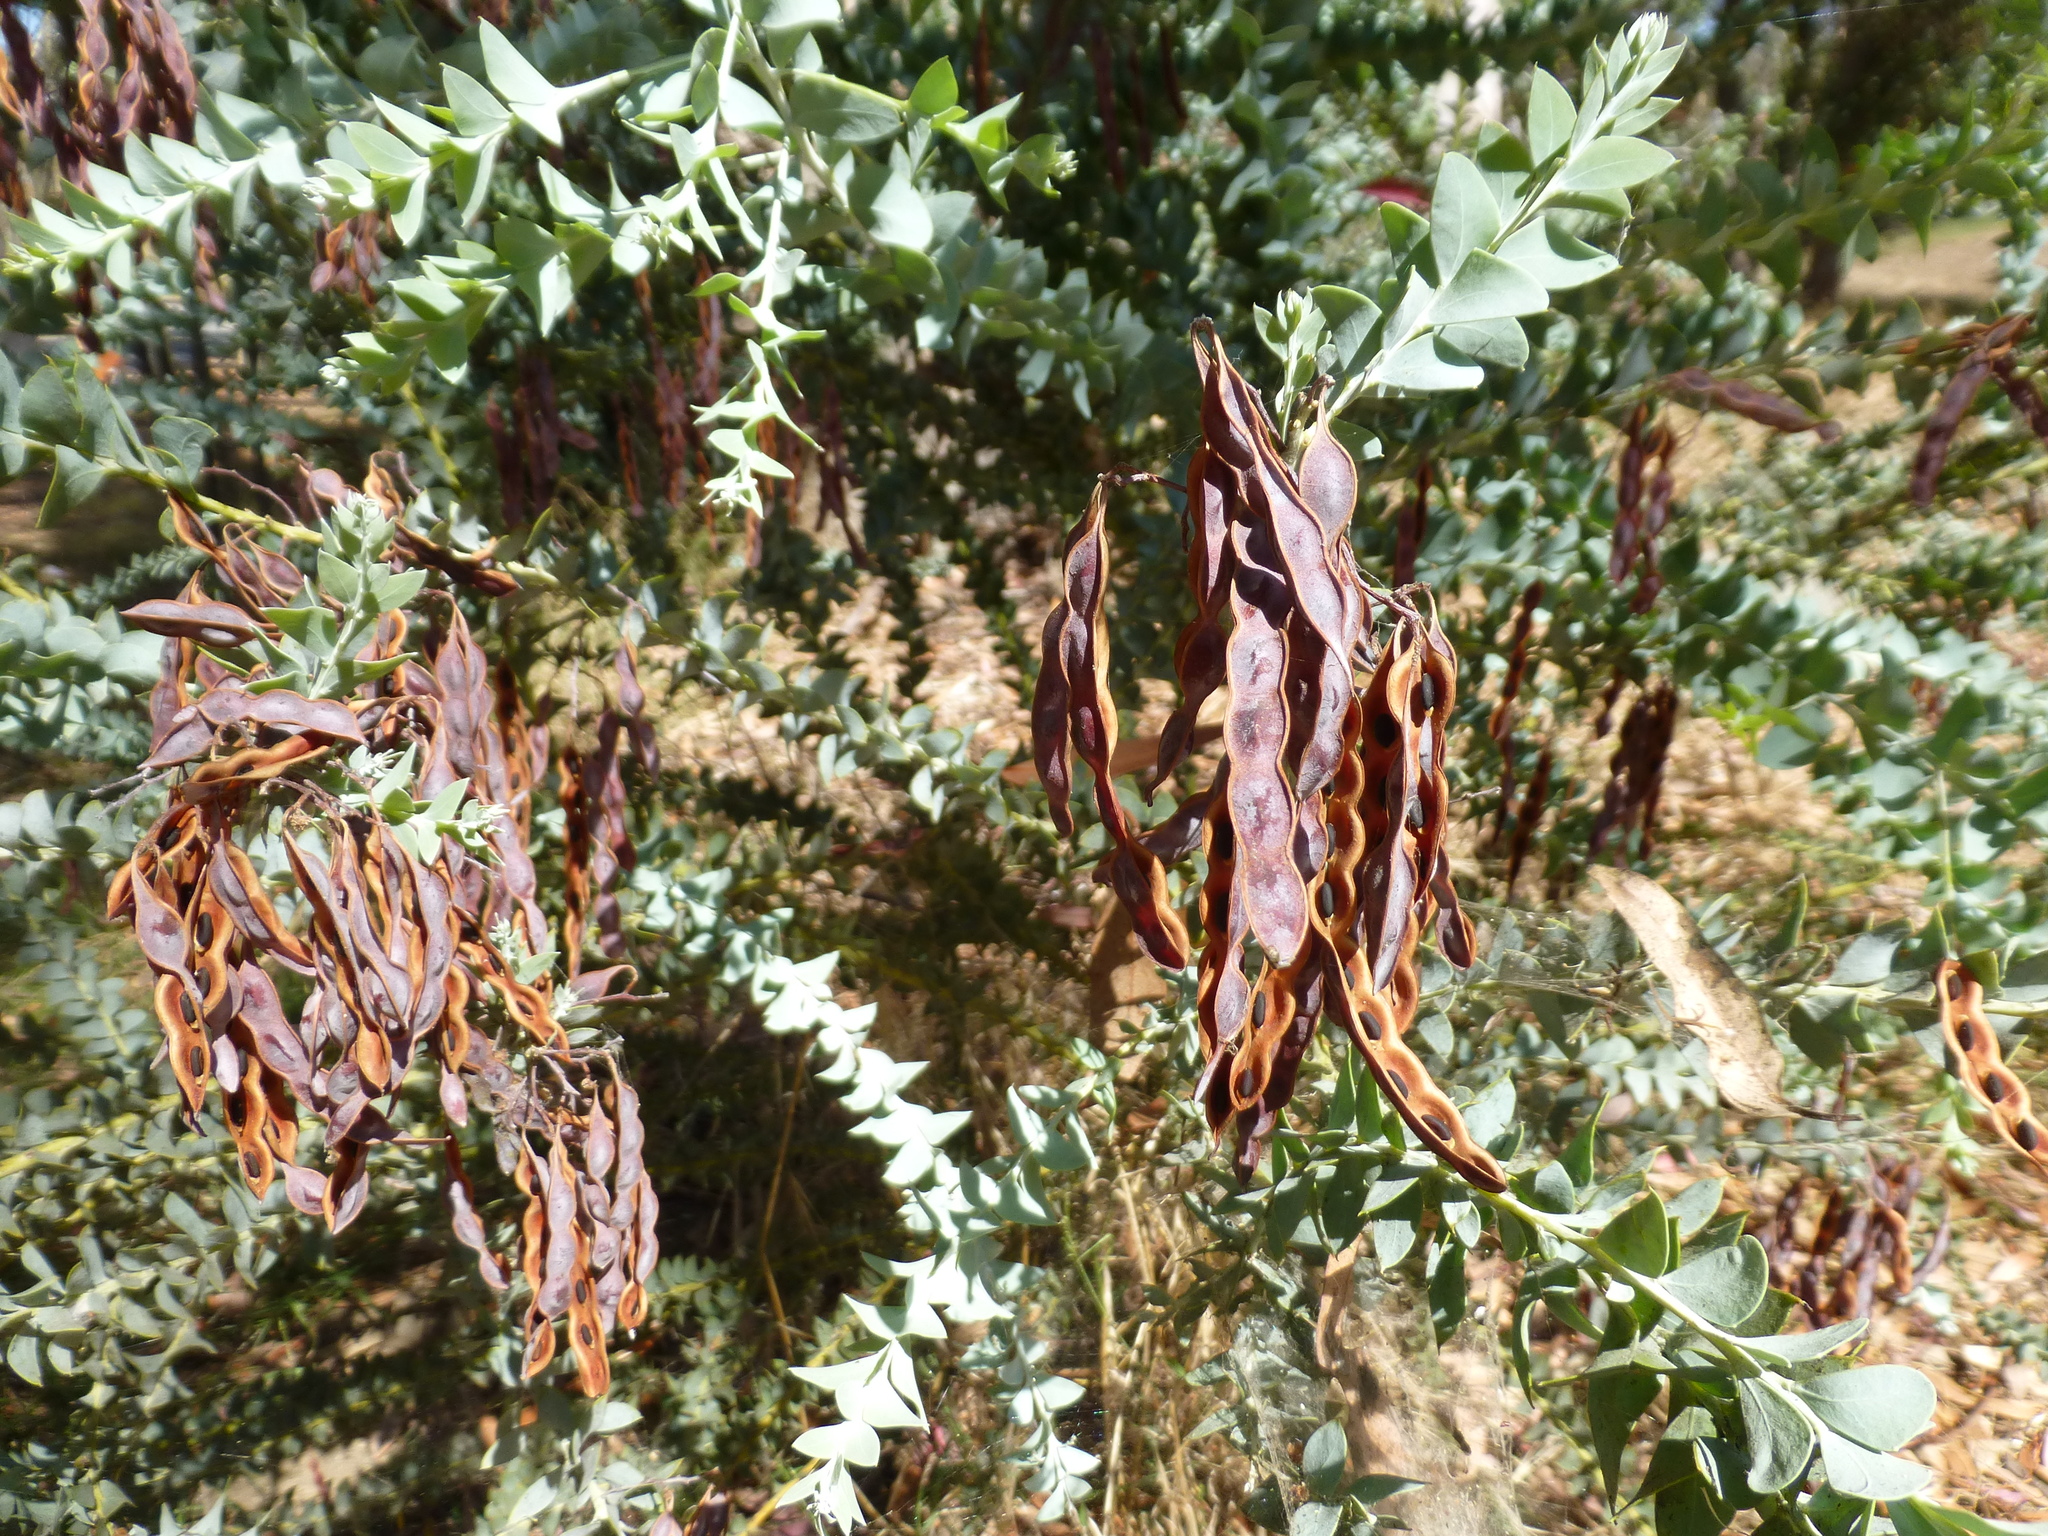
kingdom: Plantae
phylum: Tracheophyta
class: Magnoliopsida
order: Fabales
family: Fabaceae
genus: Acacia
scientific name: Acacia cultriformis
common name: Knife acacia
